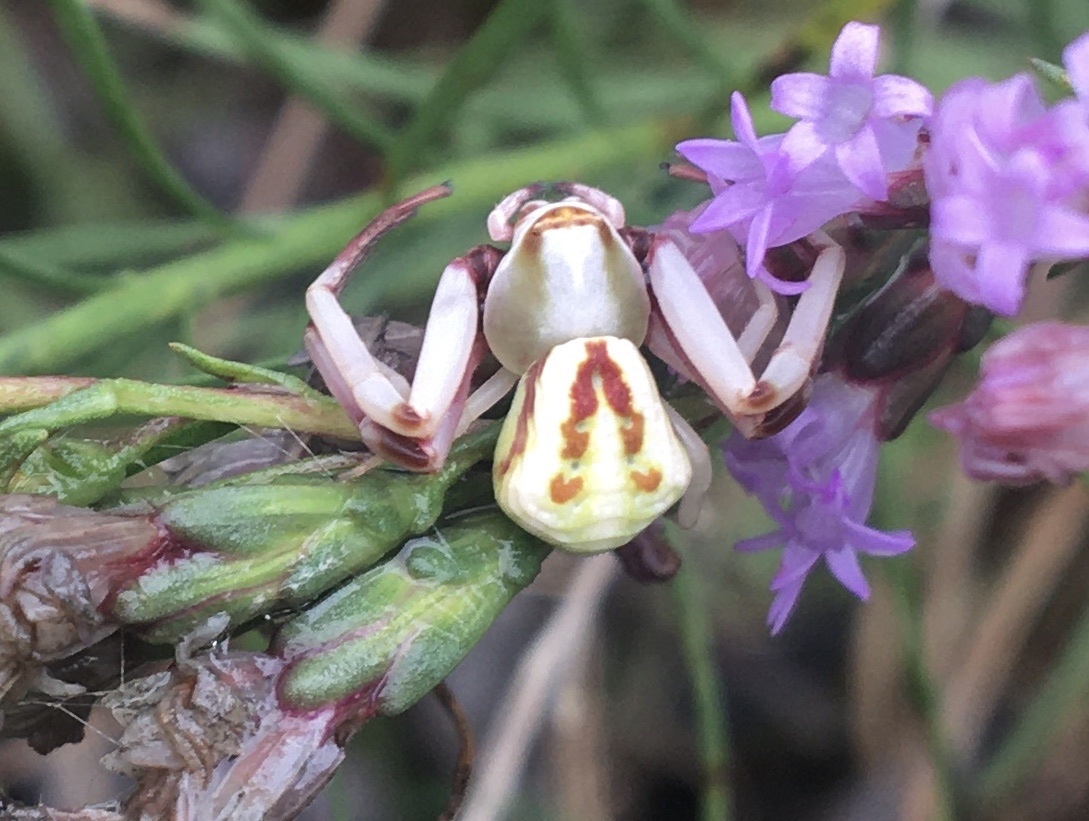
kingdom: Animalia
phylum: Arthropoda
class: Arachnida
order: Araneae
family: Thomisidae
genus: Misumenoides
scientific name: Misumenoides formosipes
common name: White-banded crab spider
